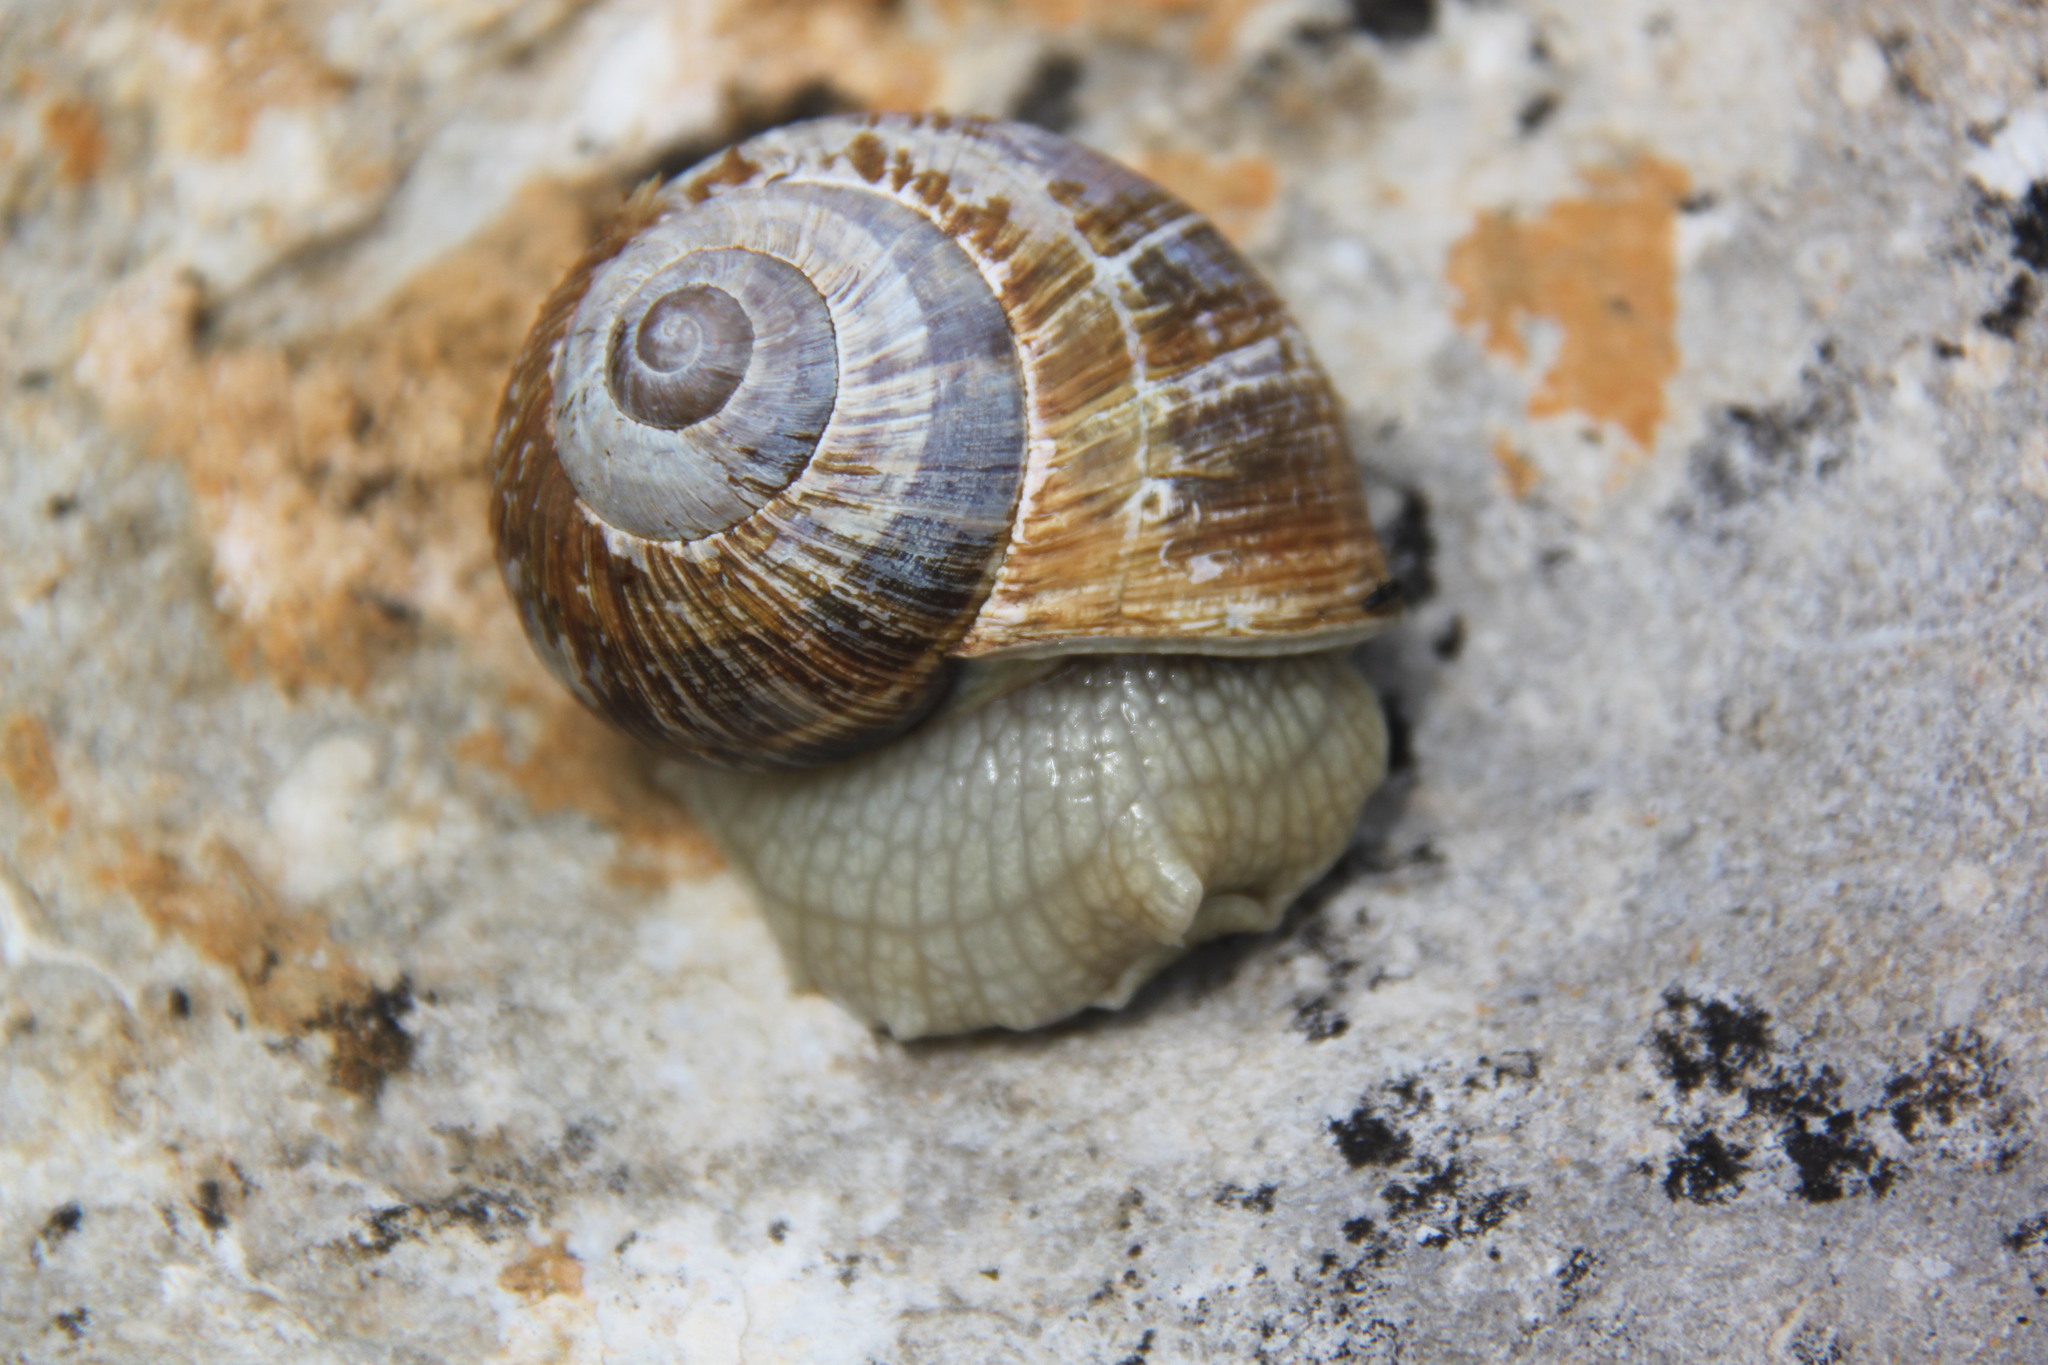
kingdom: Animalia
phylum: Mollusca
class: Gastropoda
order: Stylommatophora
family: Helicidae
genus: Helix
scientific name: Helix pomatia
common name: Roman snail
